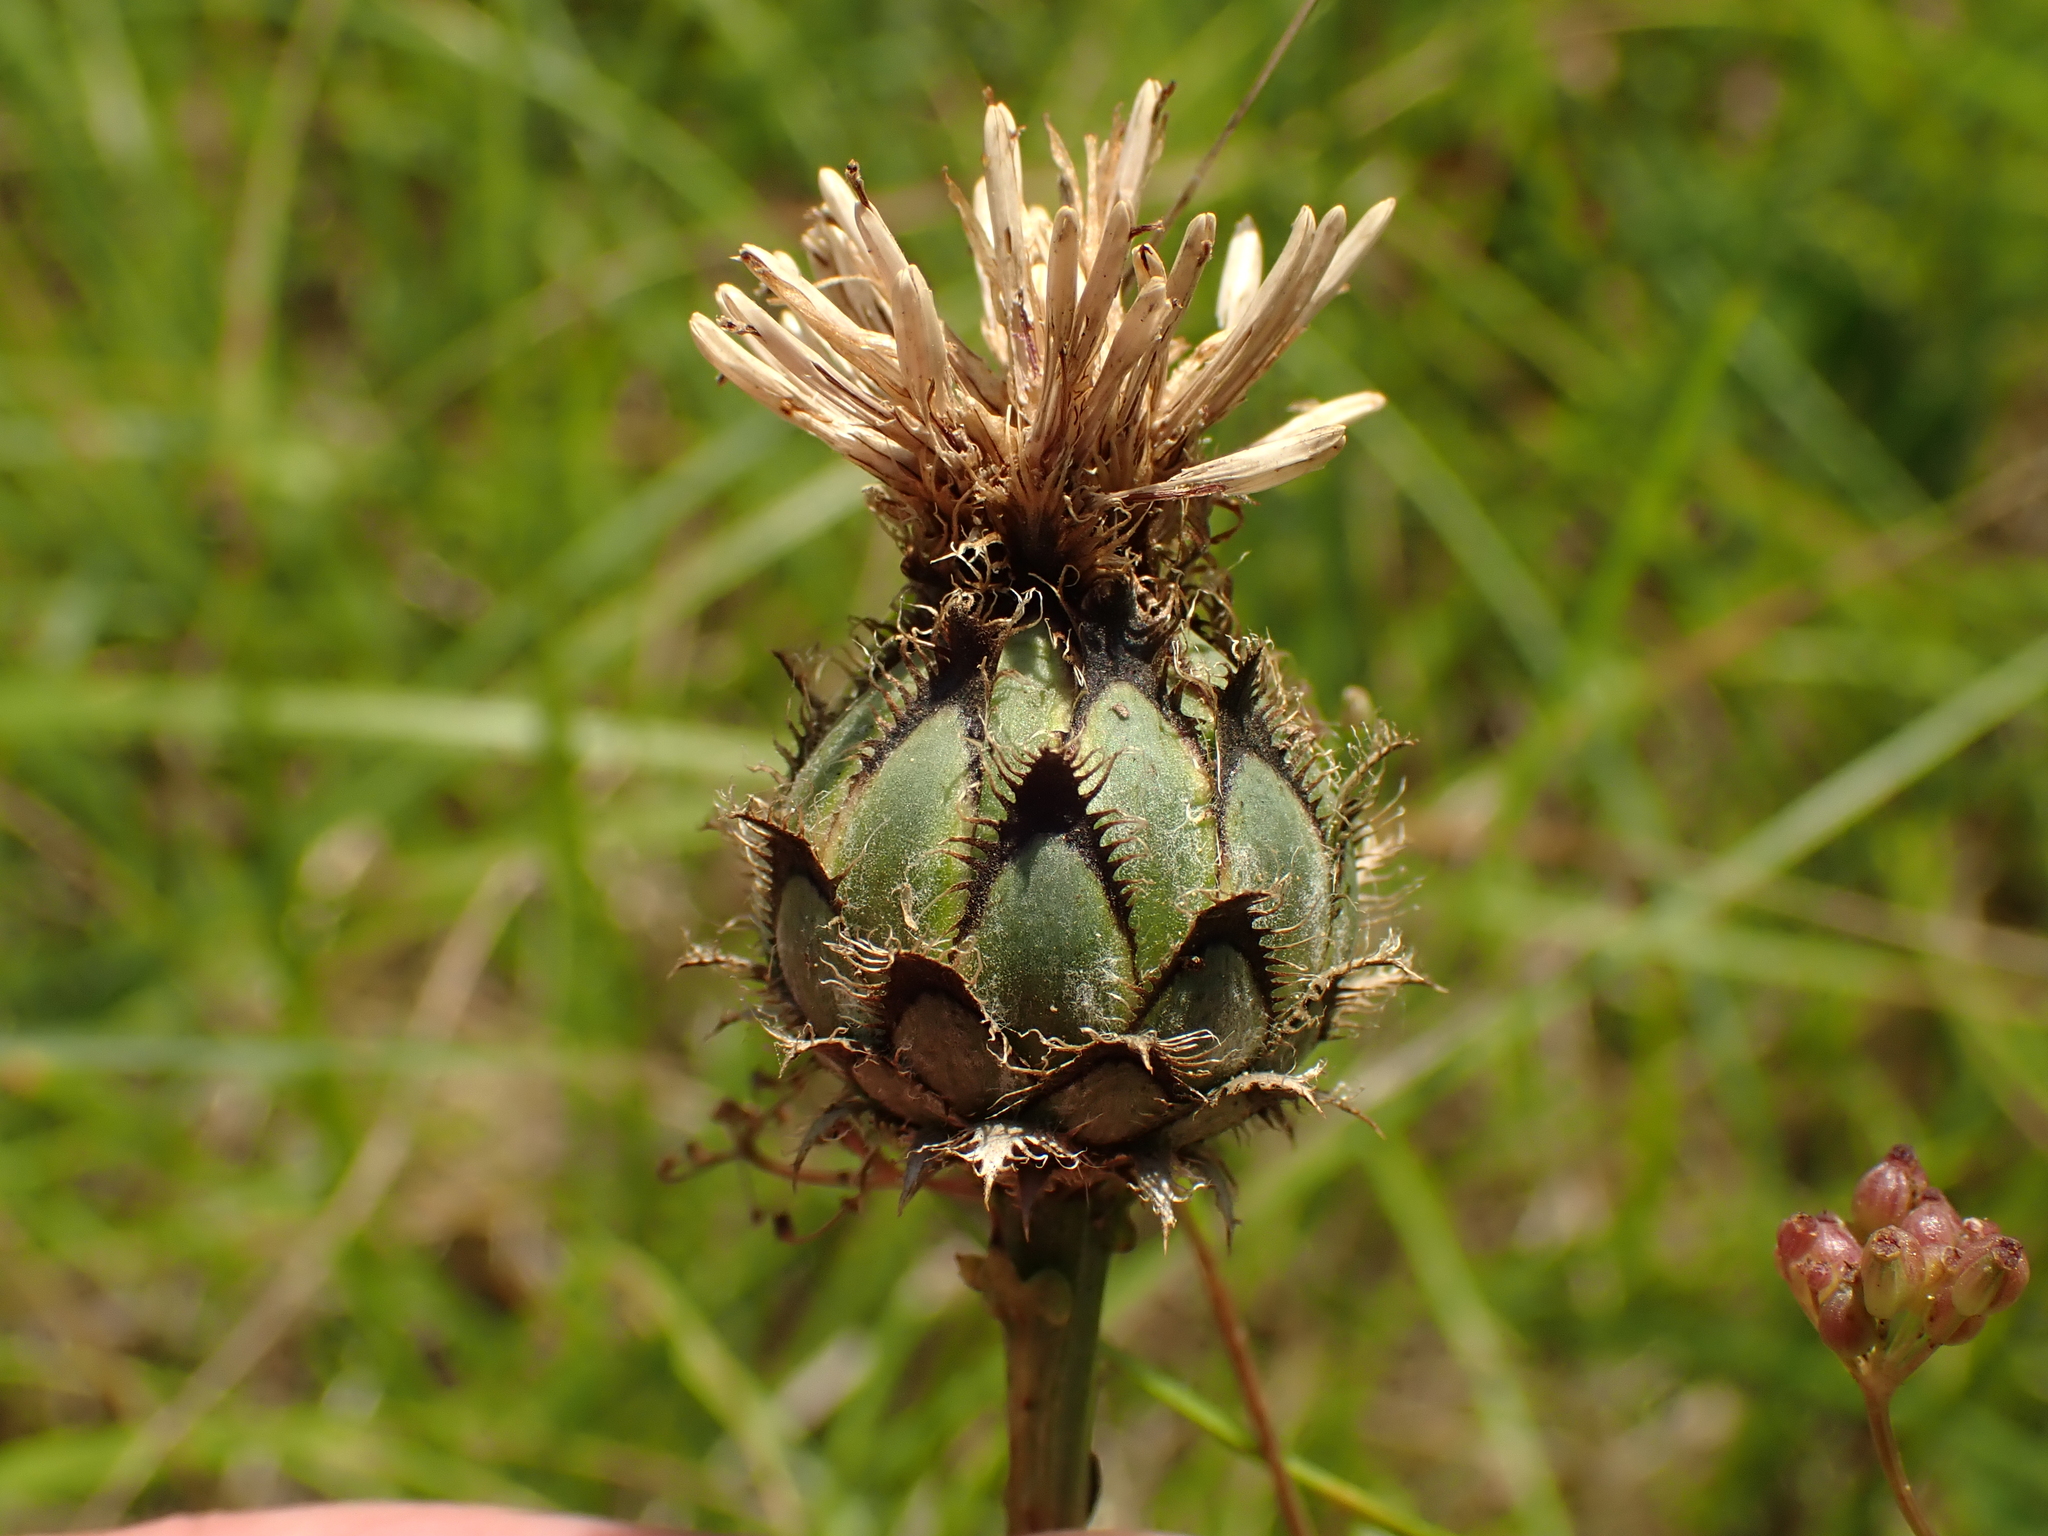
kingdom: Plantae
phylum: Tracheophyta
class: Magnoliopsida
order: Asterales
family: Asteraceae
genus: Centaurea
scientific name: Centaurea scabiosa
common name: Greater knapweed
